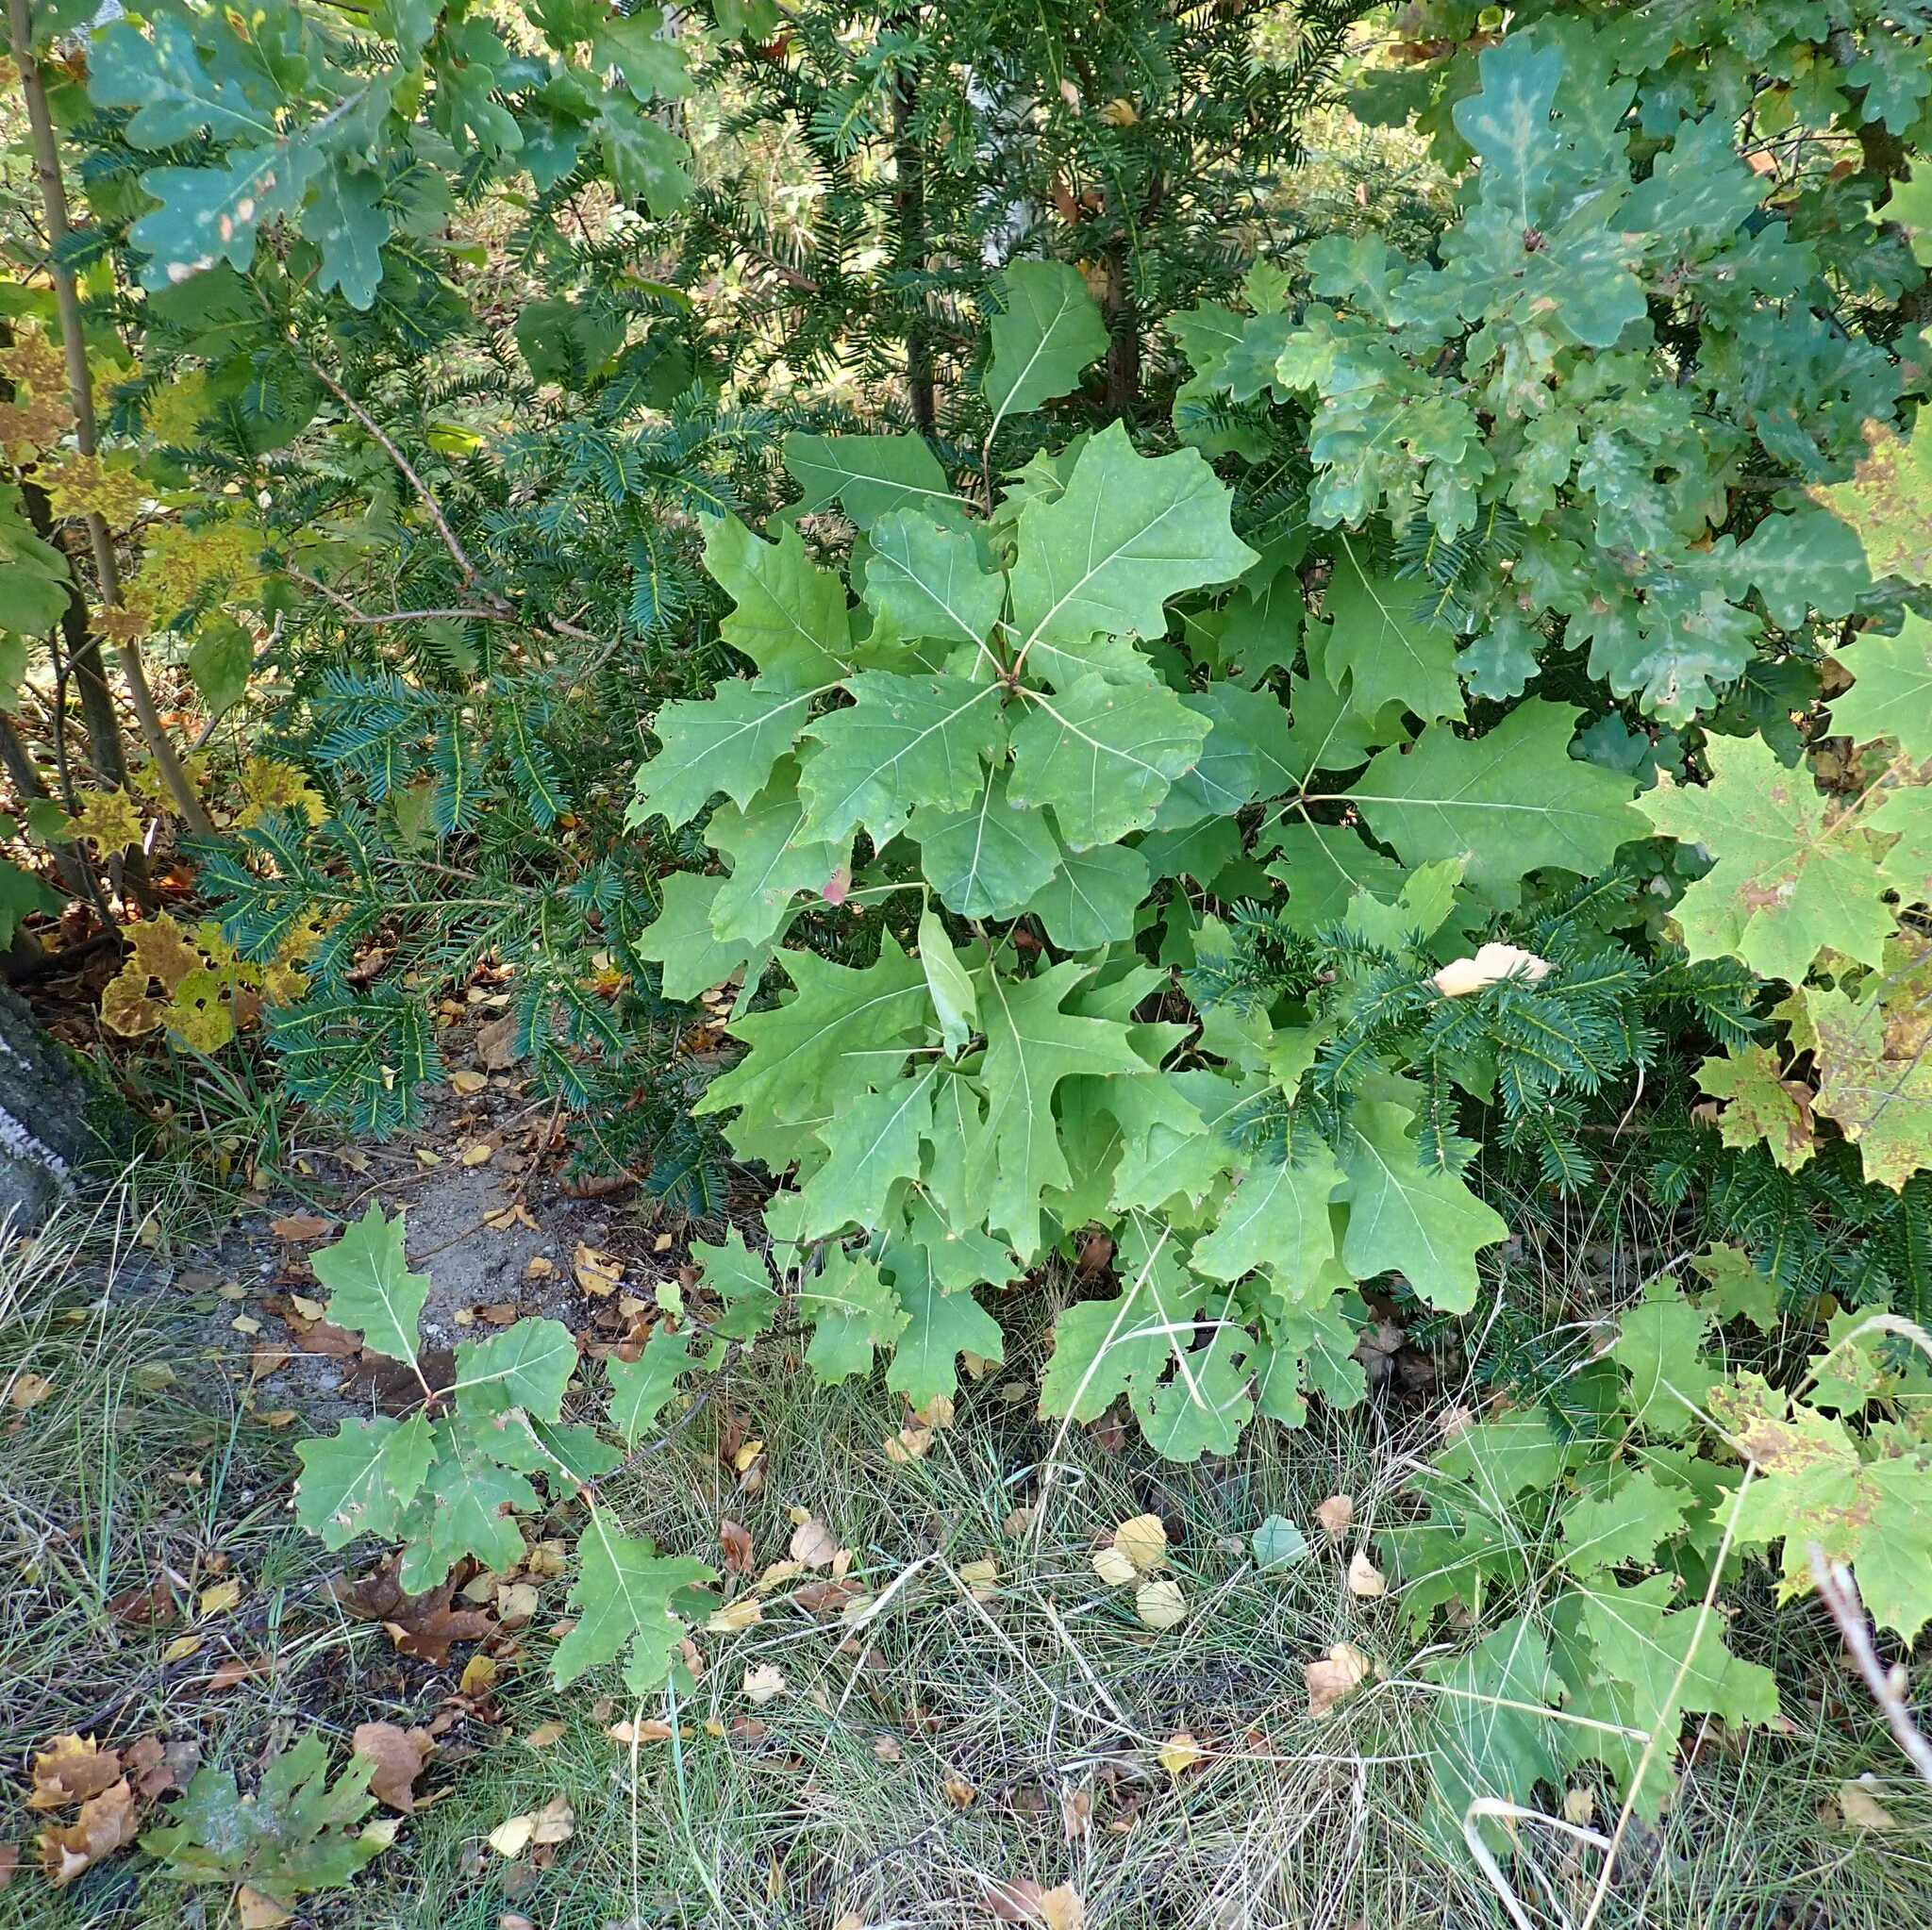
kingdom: Plantae
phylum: Tracheophyta
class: Magnoliopsida
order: Fagales
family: Fagaceae
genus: Quercus
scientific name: Quercus rubra
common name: Red oak
